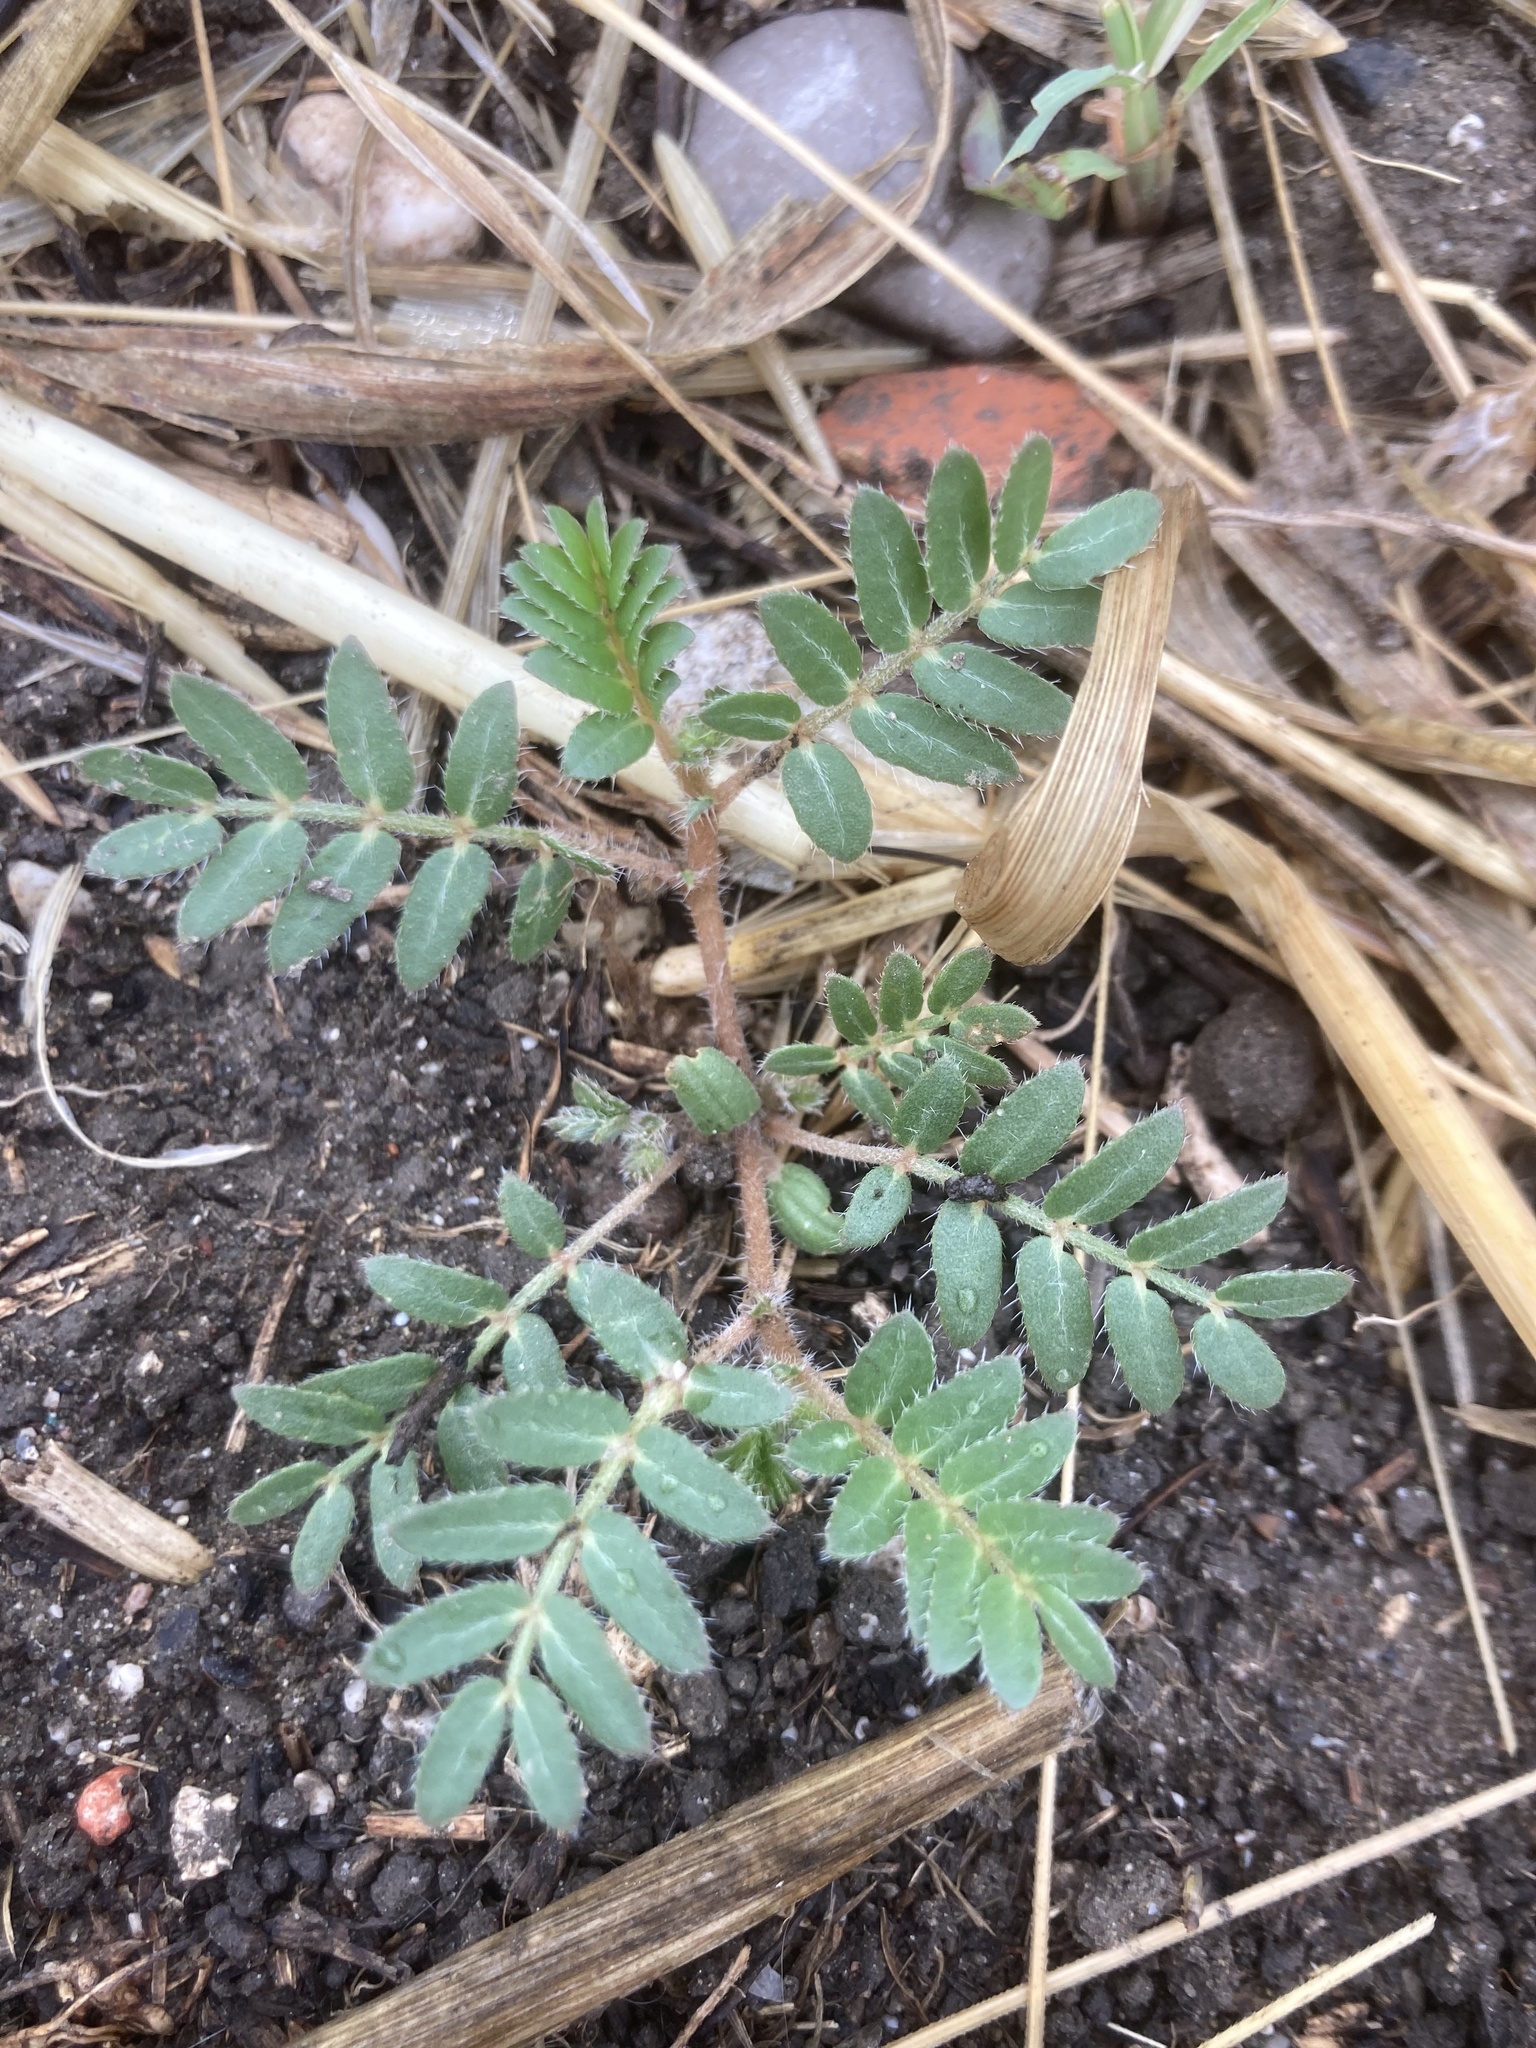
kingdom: Plantae
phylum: Tracheophyta
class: Magnoliopsida
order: Zygophyllales
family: Zygophyllaceae
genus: Tribulus
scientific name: Tribulus terrestris
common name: Puncturevine
